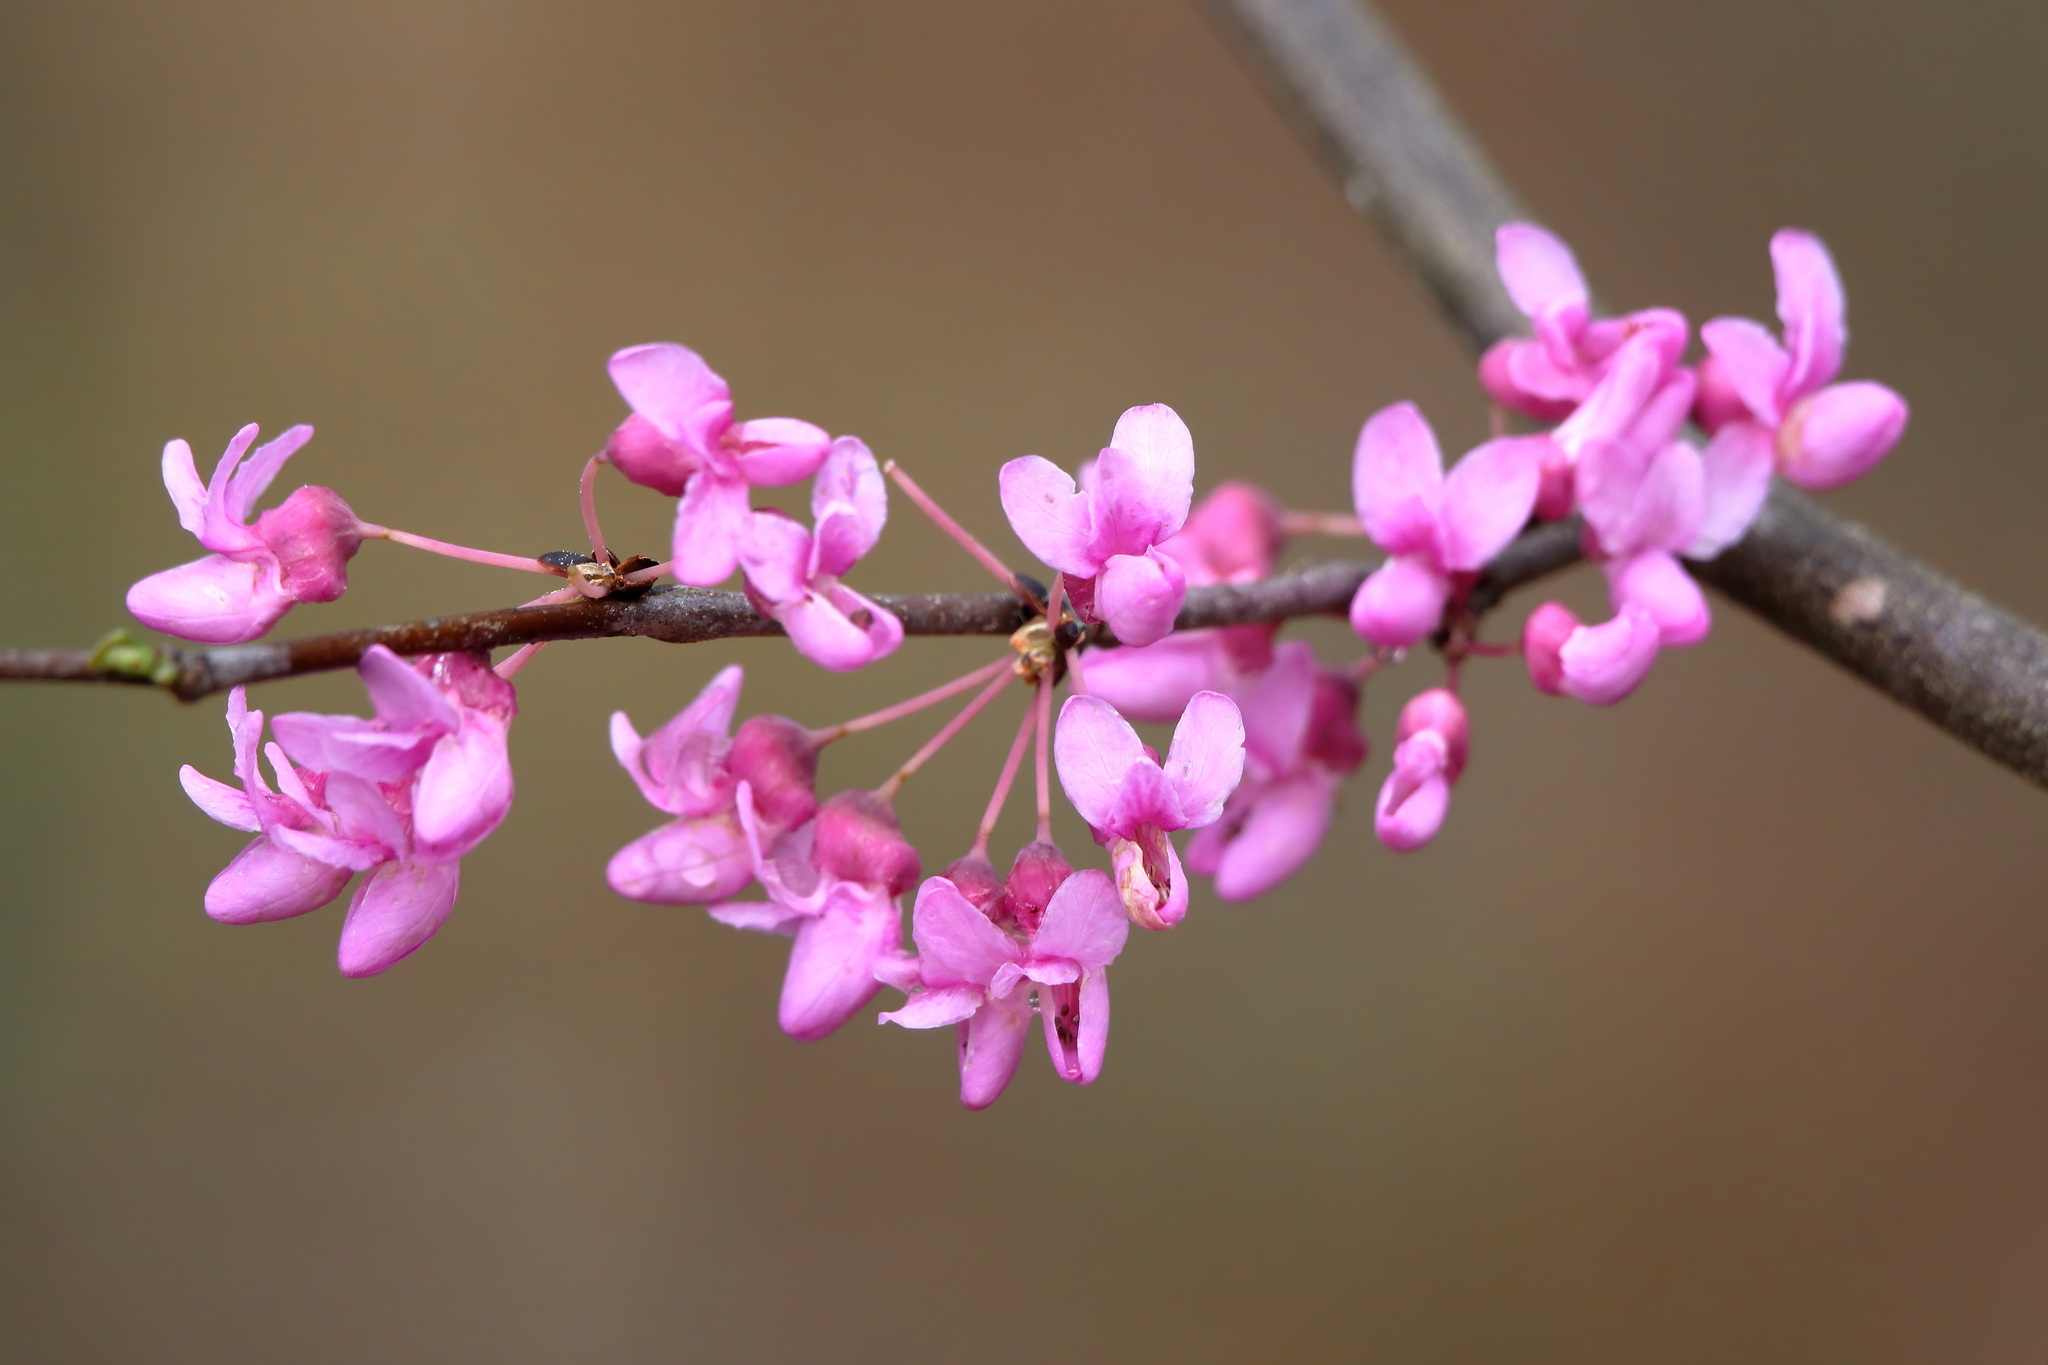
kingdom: Plantae
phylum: Tracheophyta
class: Magnoliopsida
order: Fabales
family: Fabaceae
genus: Cercis
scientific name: Cercis canadensis
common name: Eastern redbud
